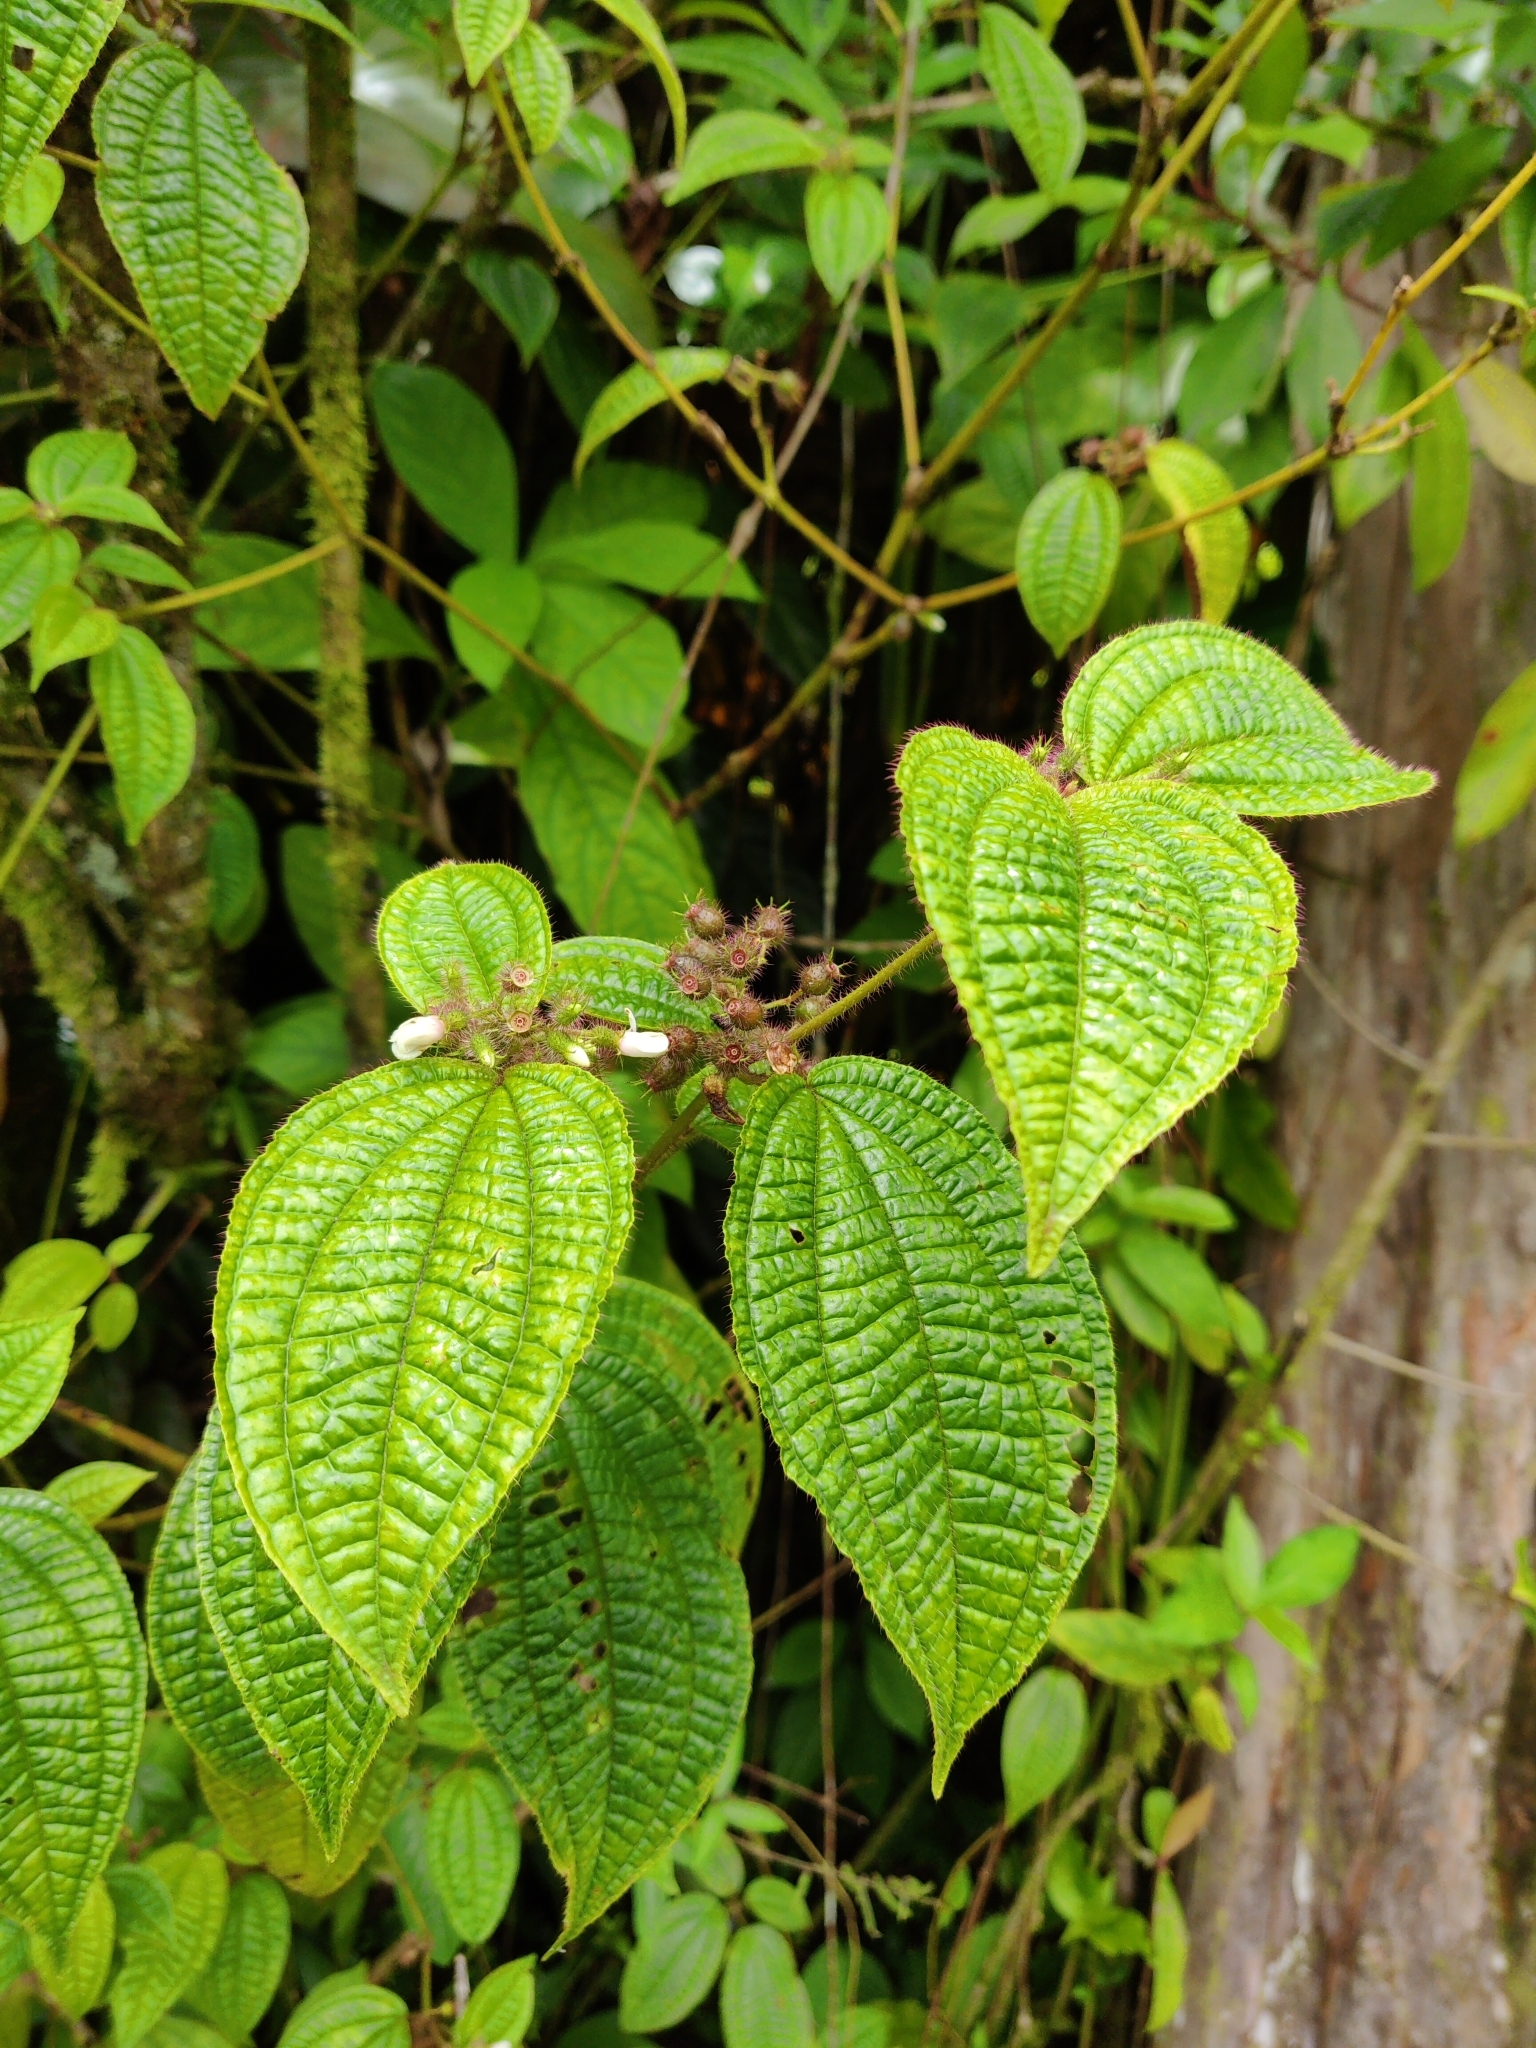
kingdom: Plantae
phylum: Tracheophyta
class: Magnoliopsida
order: Myrtales
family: Melastomataceae
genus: Miconia
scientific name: Miconia crenata
